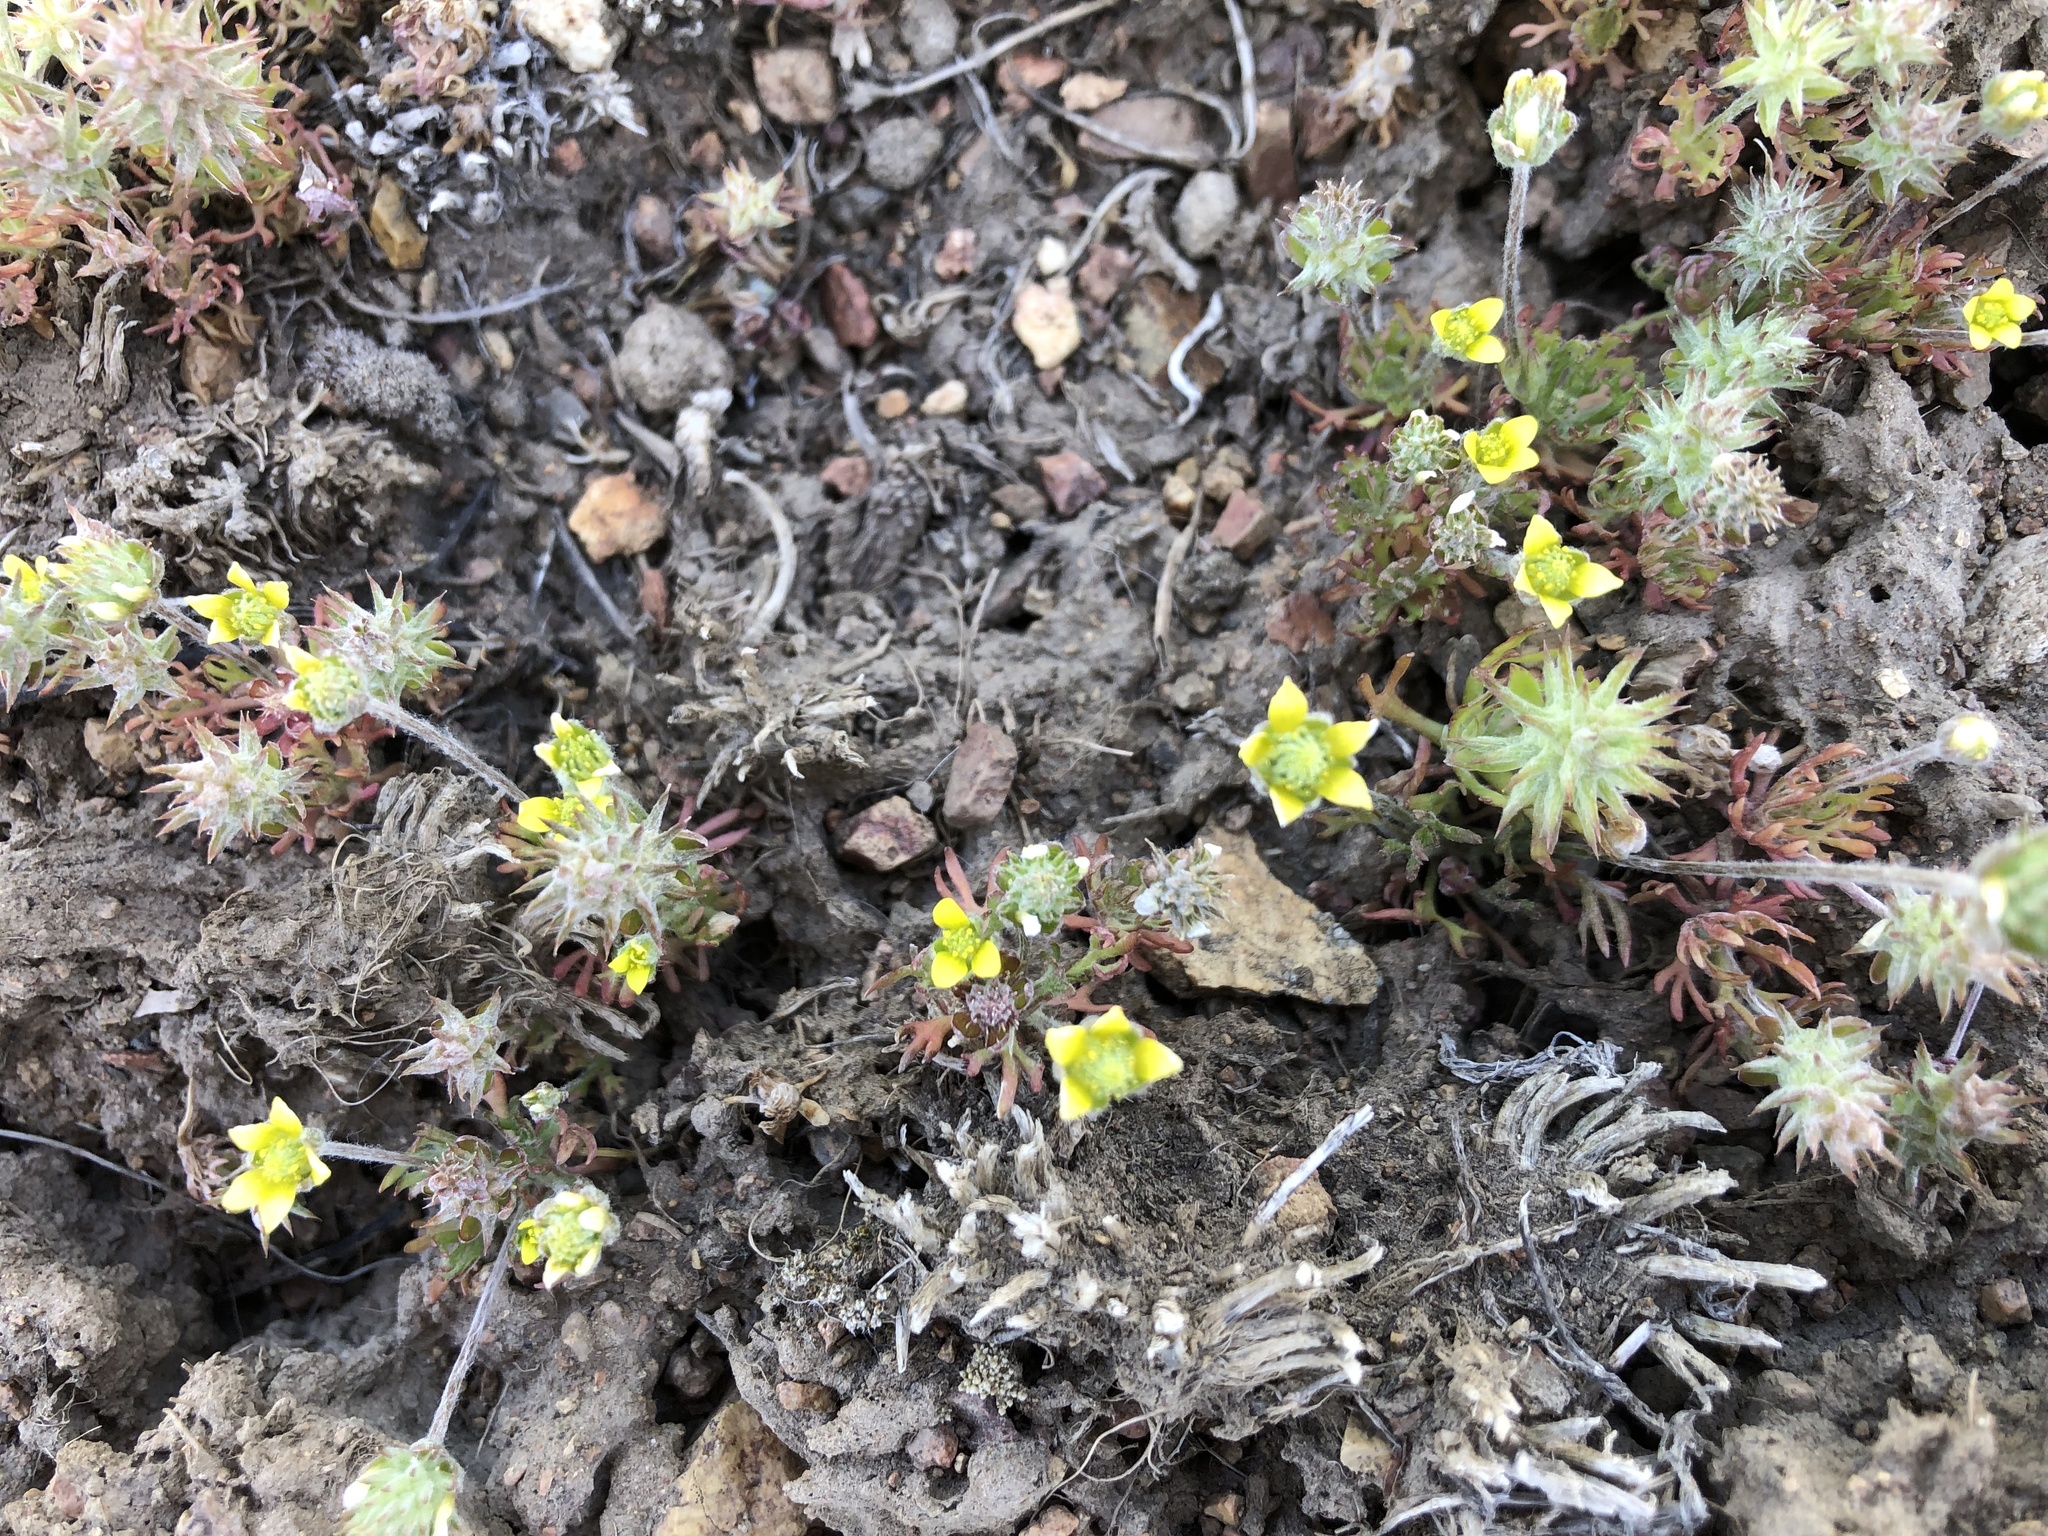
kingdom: Plantae
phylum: Tracheophyta
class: Magnoliopsida
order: Ranunculales
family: Ranunculaceae
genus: Ceratocephala
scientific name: Ceratocephala orthoceras
